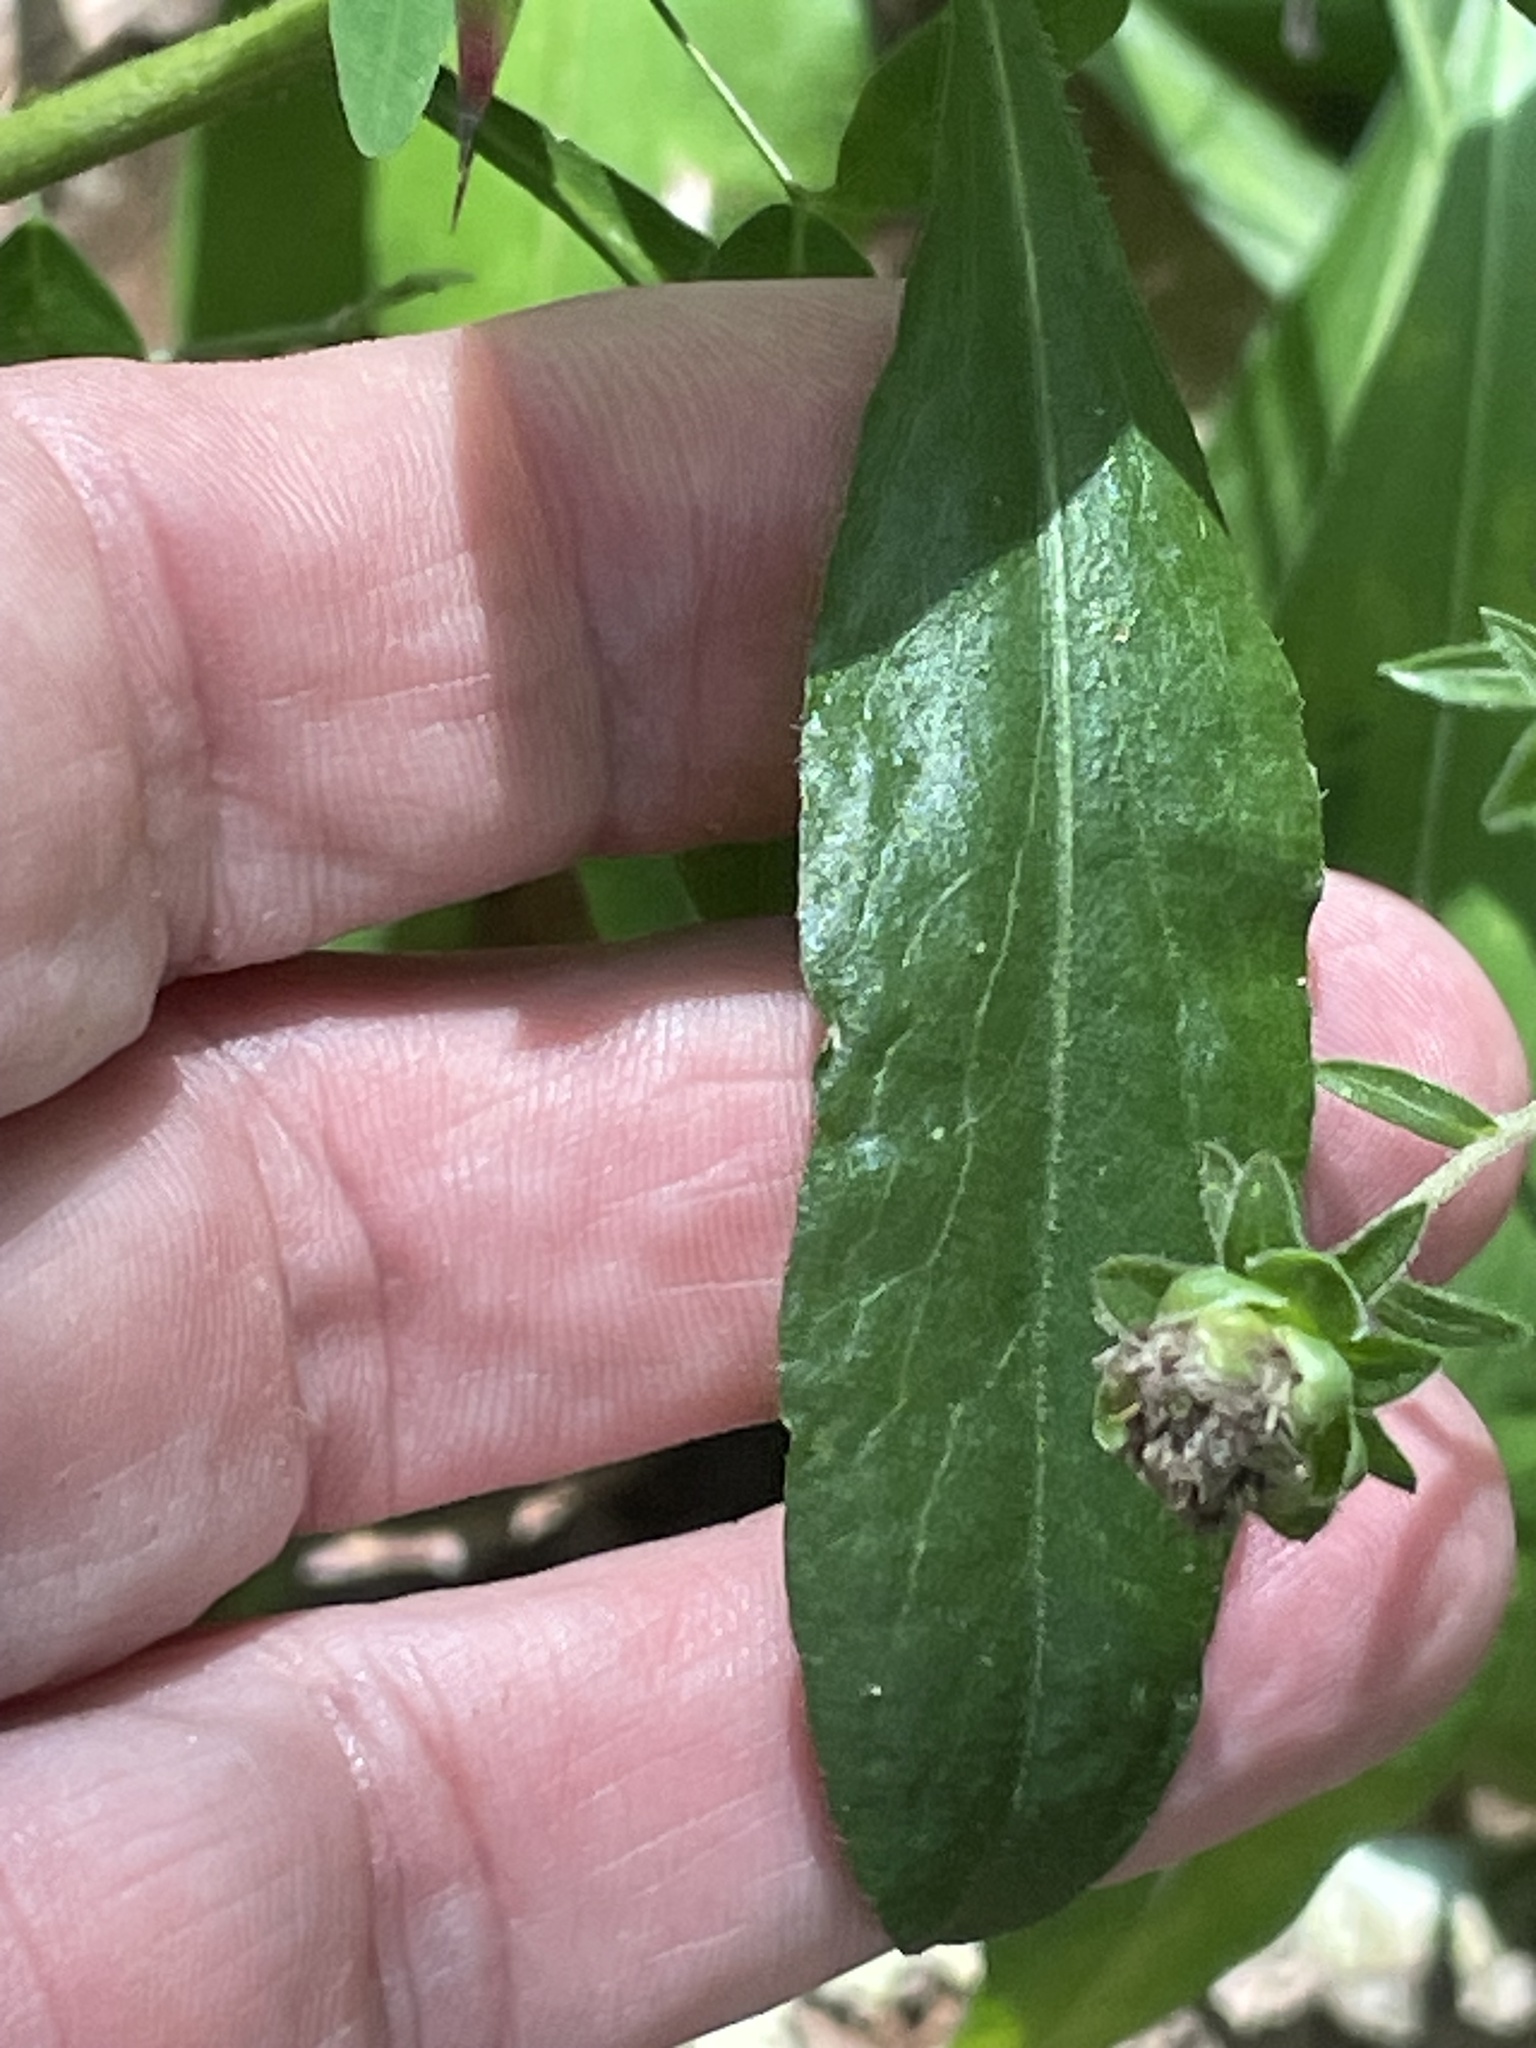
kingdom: Plantae
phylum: Tracheophyta
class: Magnoliopsida
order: Asterales
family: Asteraceae
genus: Liatris
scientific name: Liatris squarrulosa
